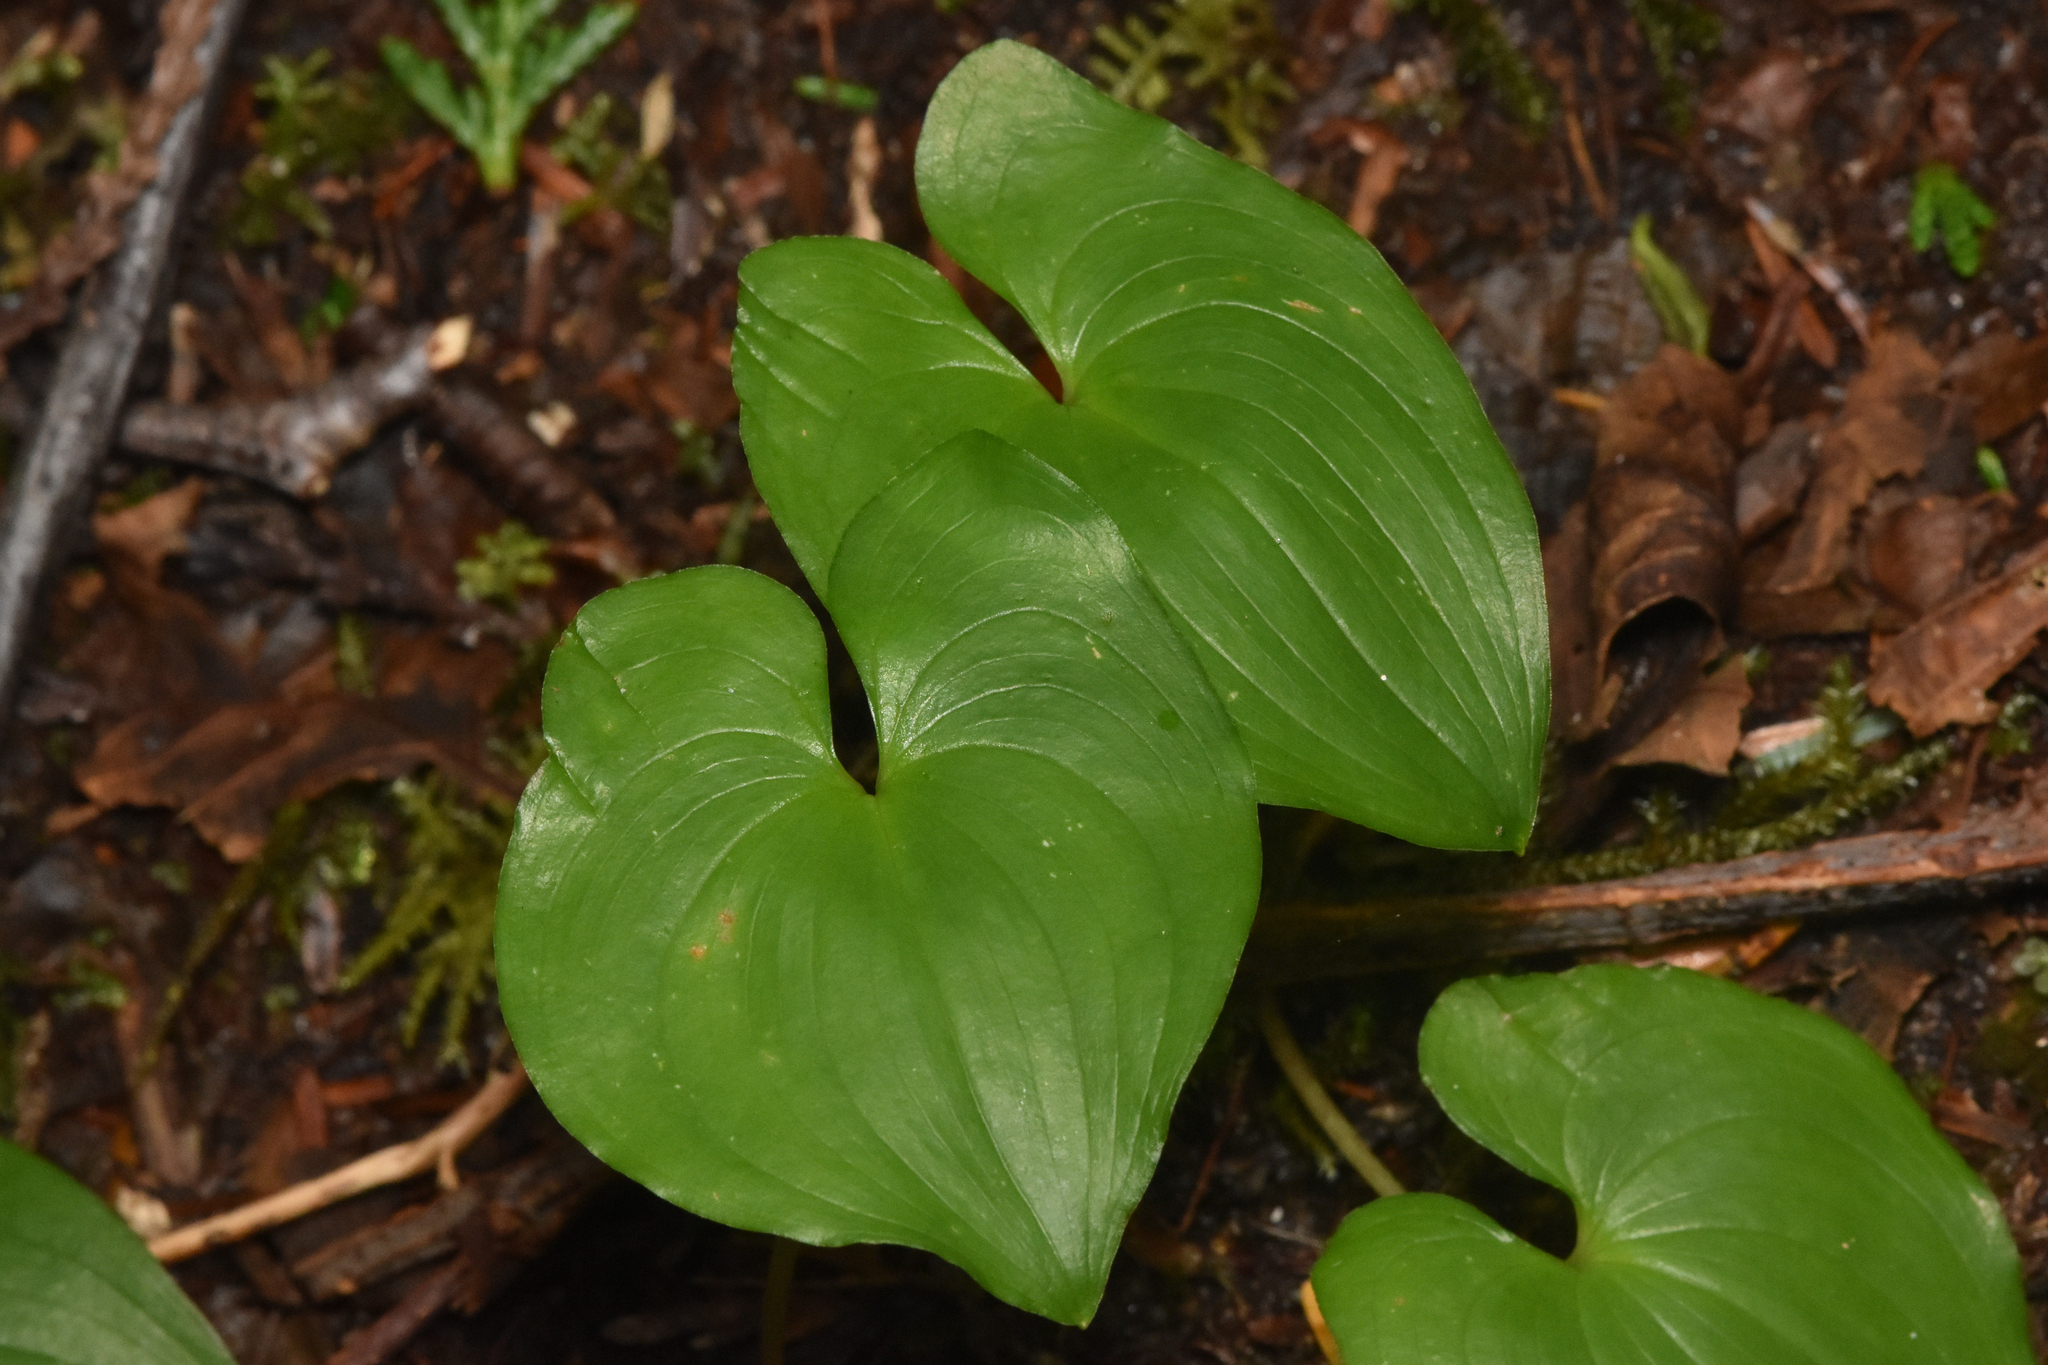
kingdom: Plantae
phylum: Tracheophyta
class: Liliopsida
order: Asparagales
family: Asparagaceae
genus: Maianthemum
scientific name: Maianthemum dilatatum
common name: False lily-of-the-valley
